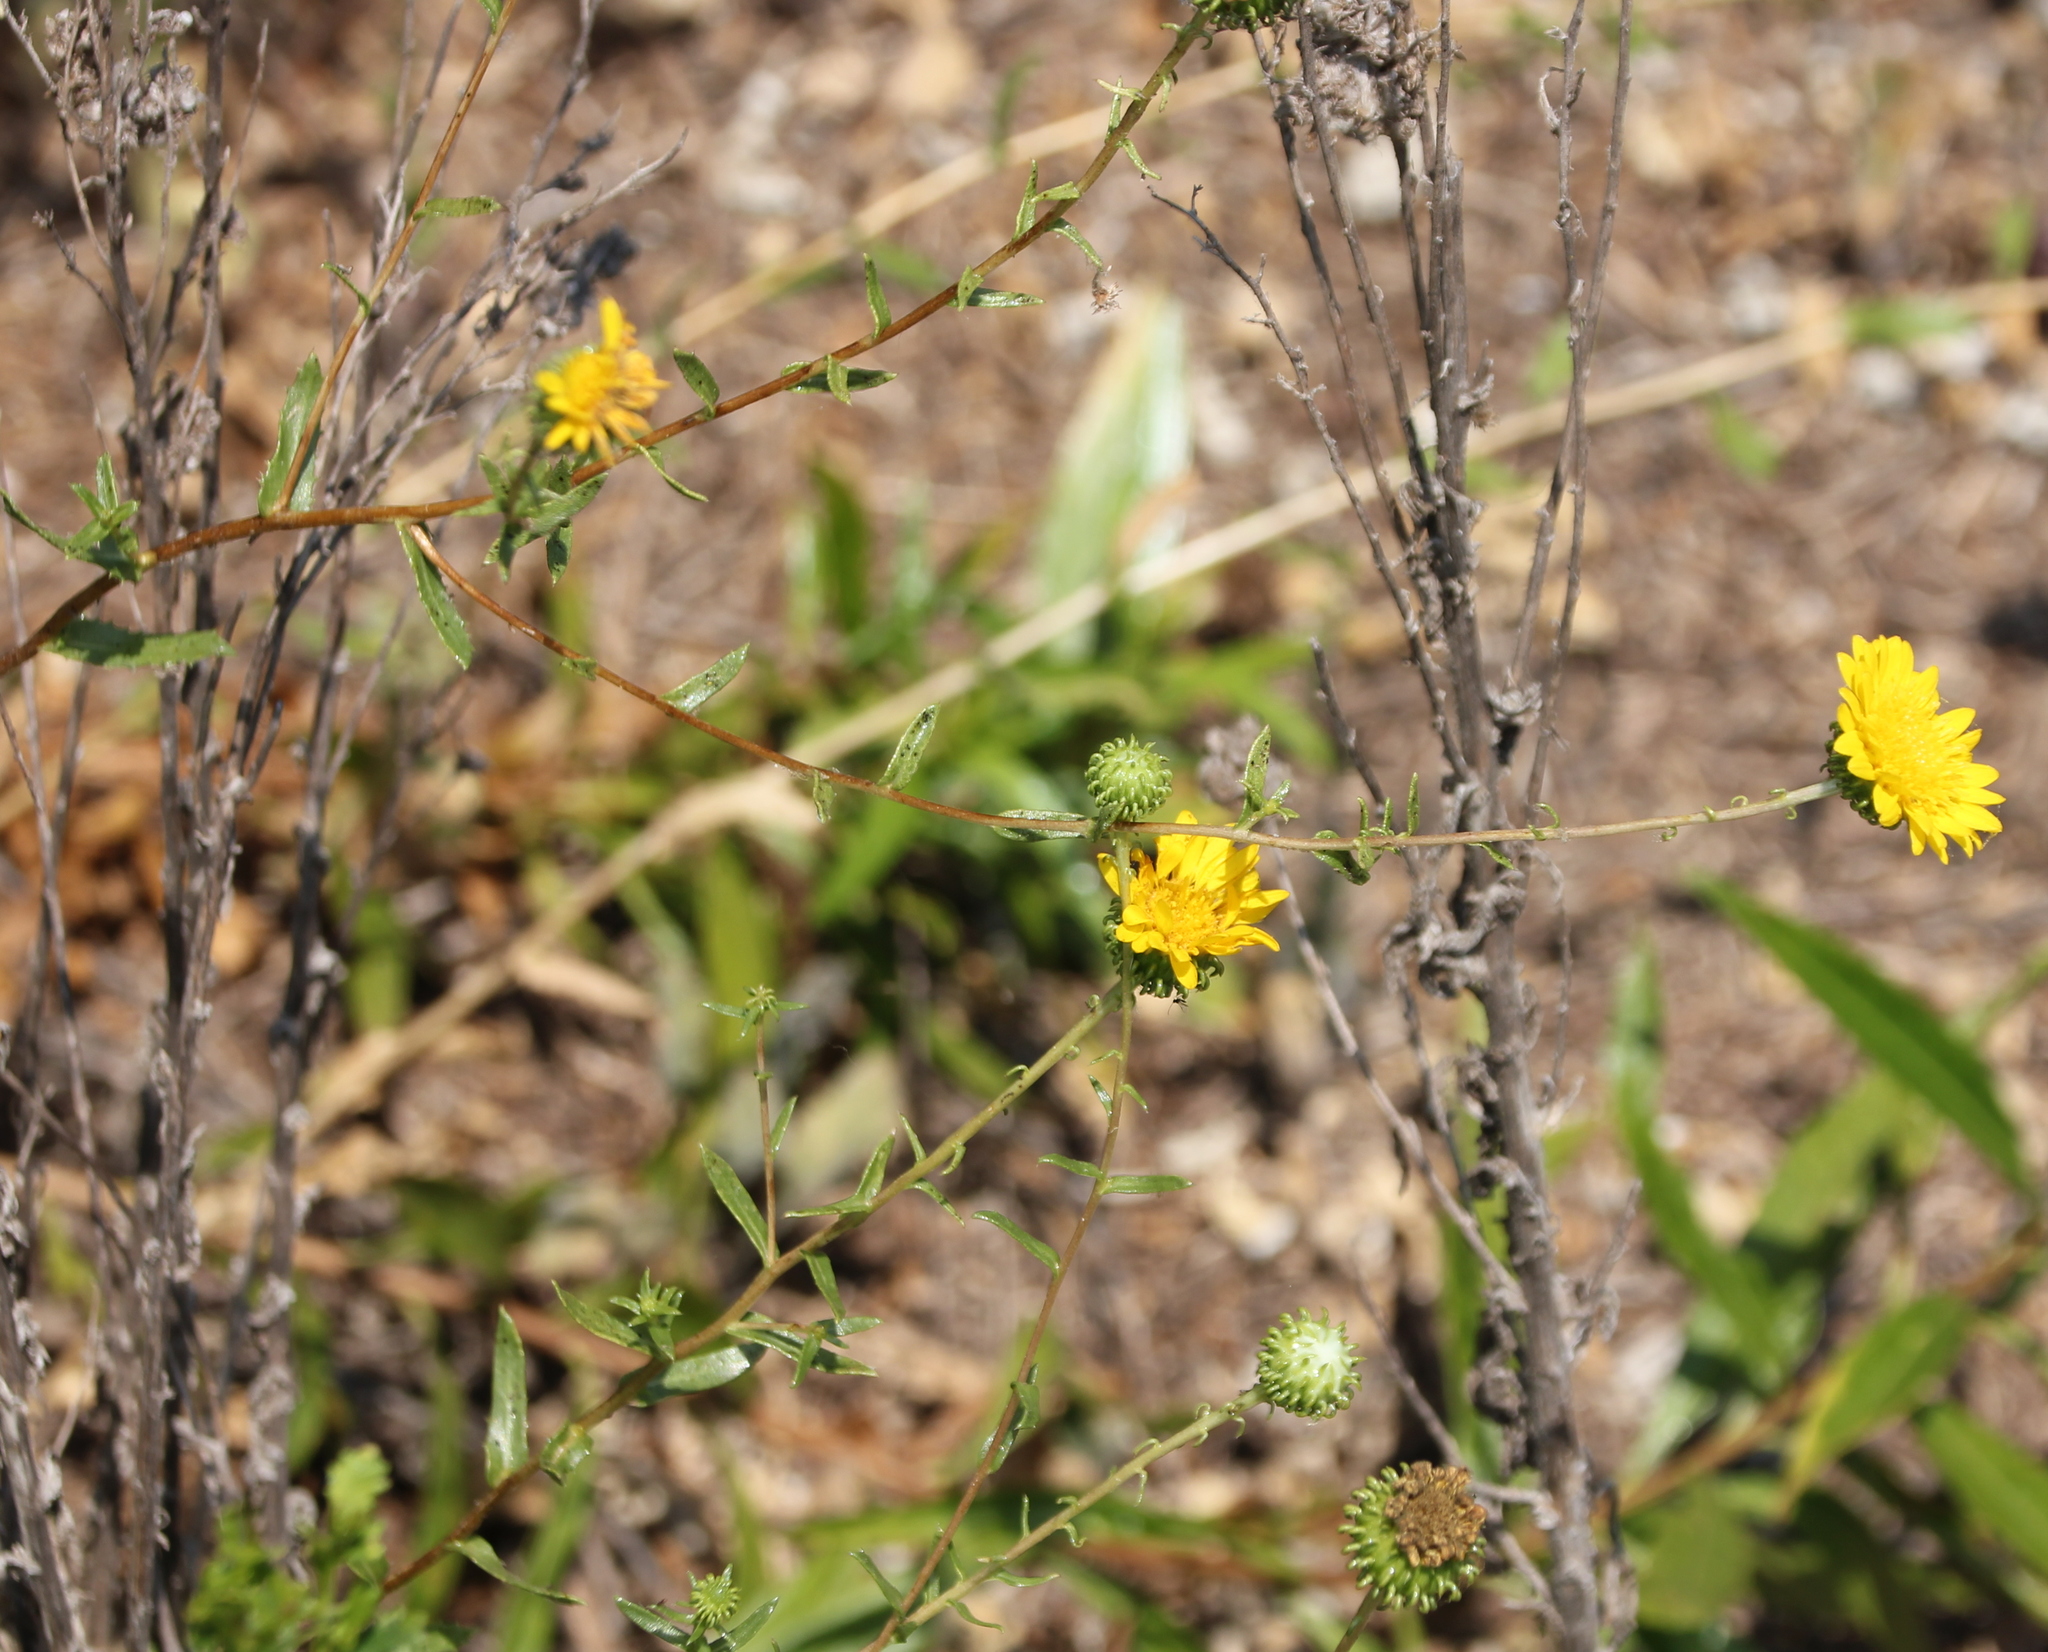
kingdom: Plantae
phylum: Tracheophyta
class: Magnoliopsida
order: Asterales
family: Asteraceae
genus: Grindelia
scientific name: Grindelia hirsutula
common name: Hairy gumweed
